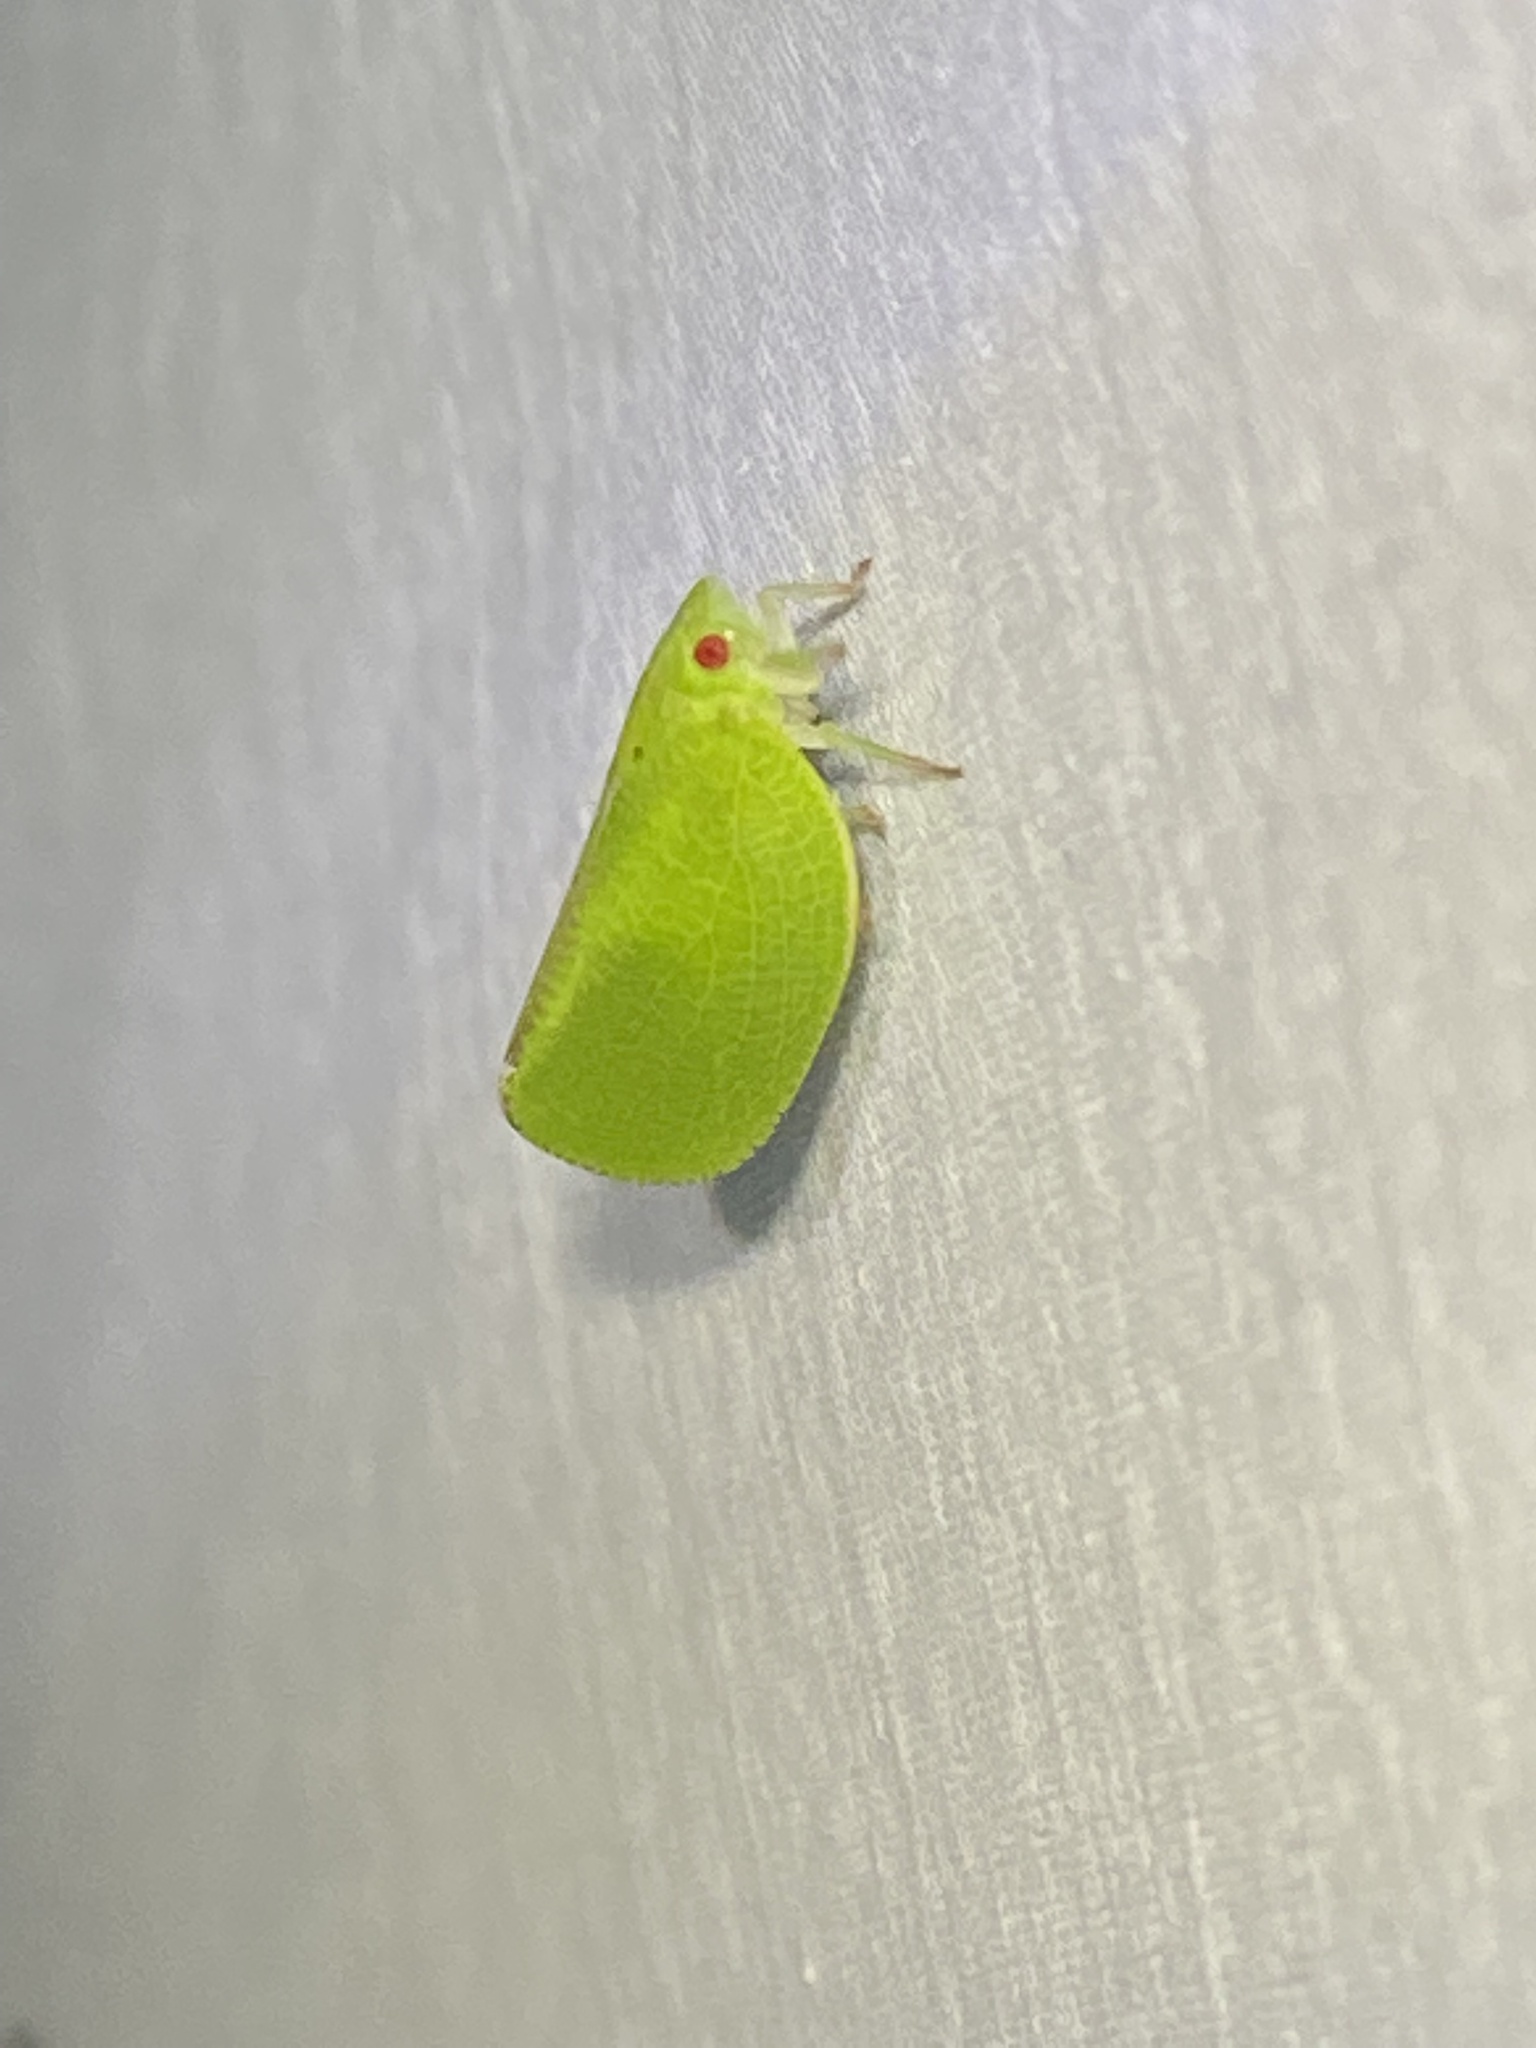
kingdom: Animalia
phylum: Arthropoda
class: Insecta
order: Hemiptera
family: Acanaloniidae
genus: Acanalonia
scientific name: Acanalonia conica
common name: Green cone-headed planthopper
